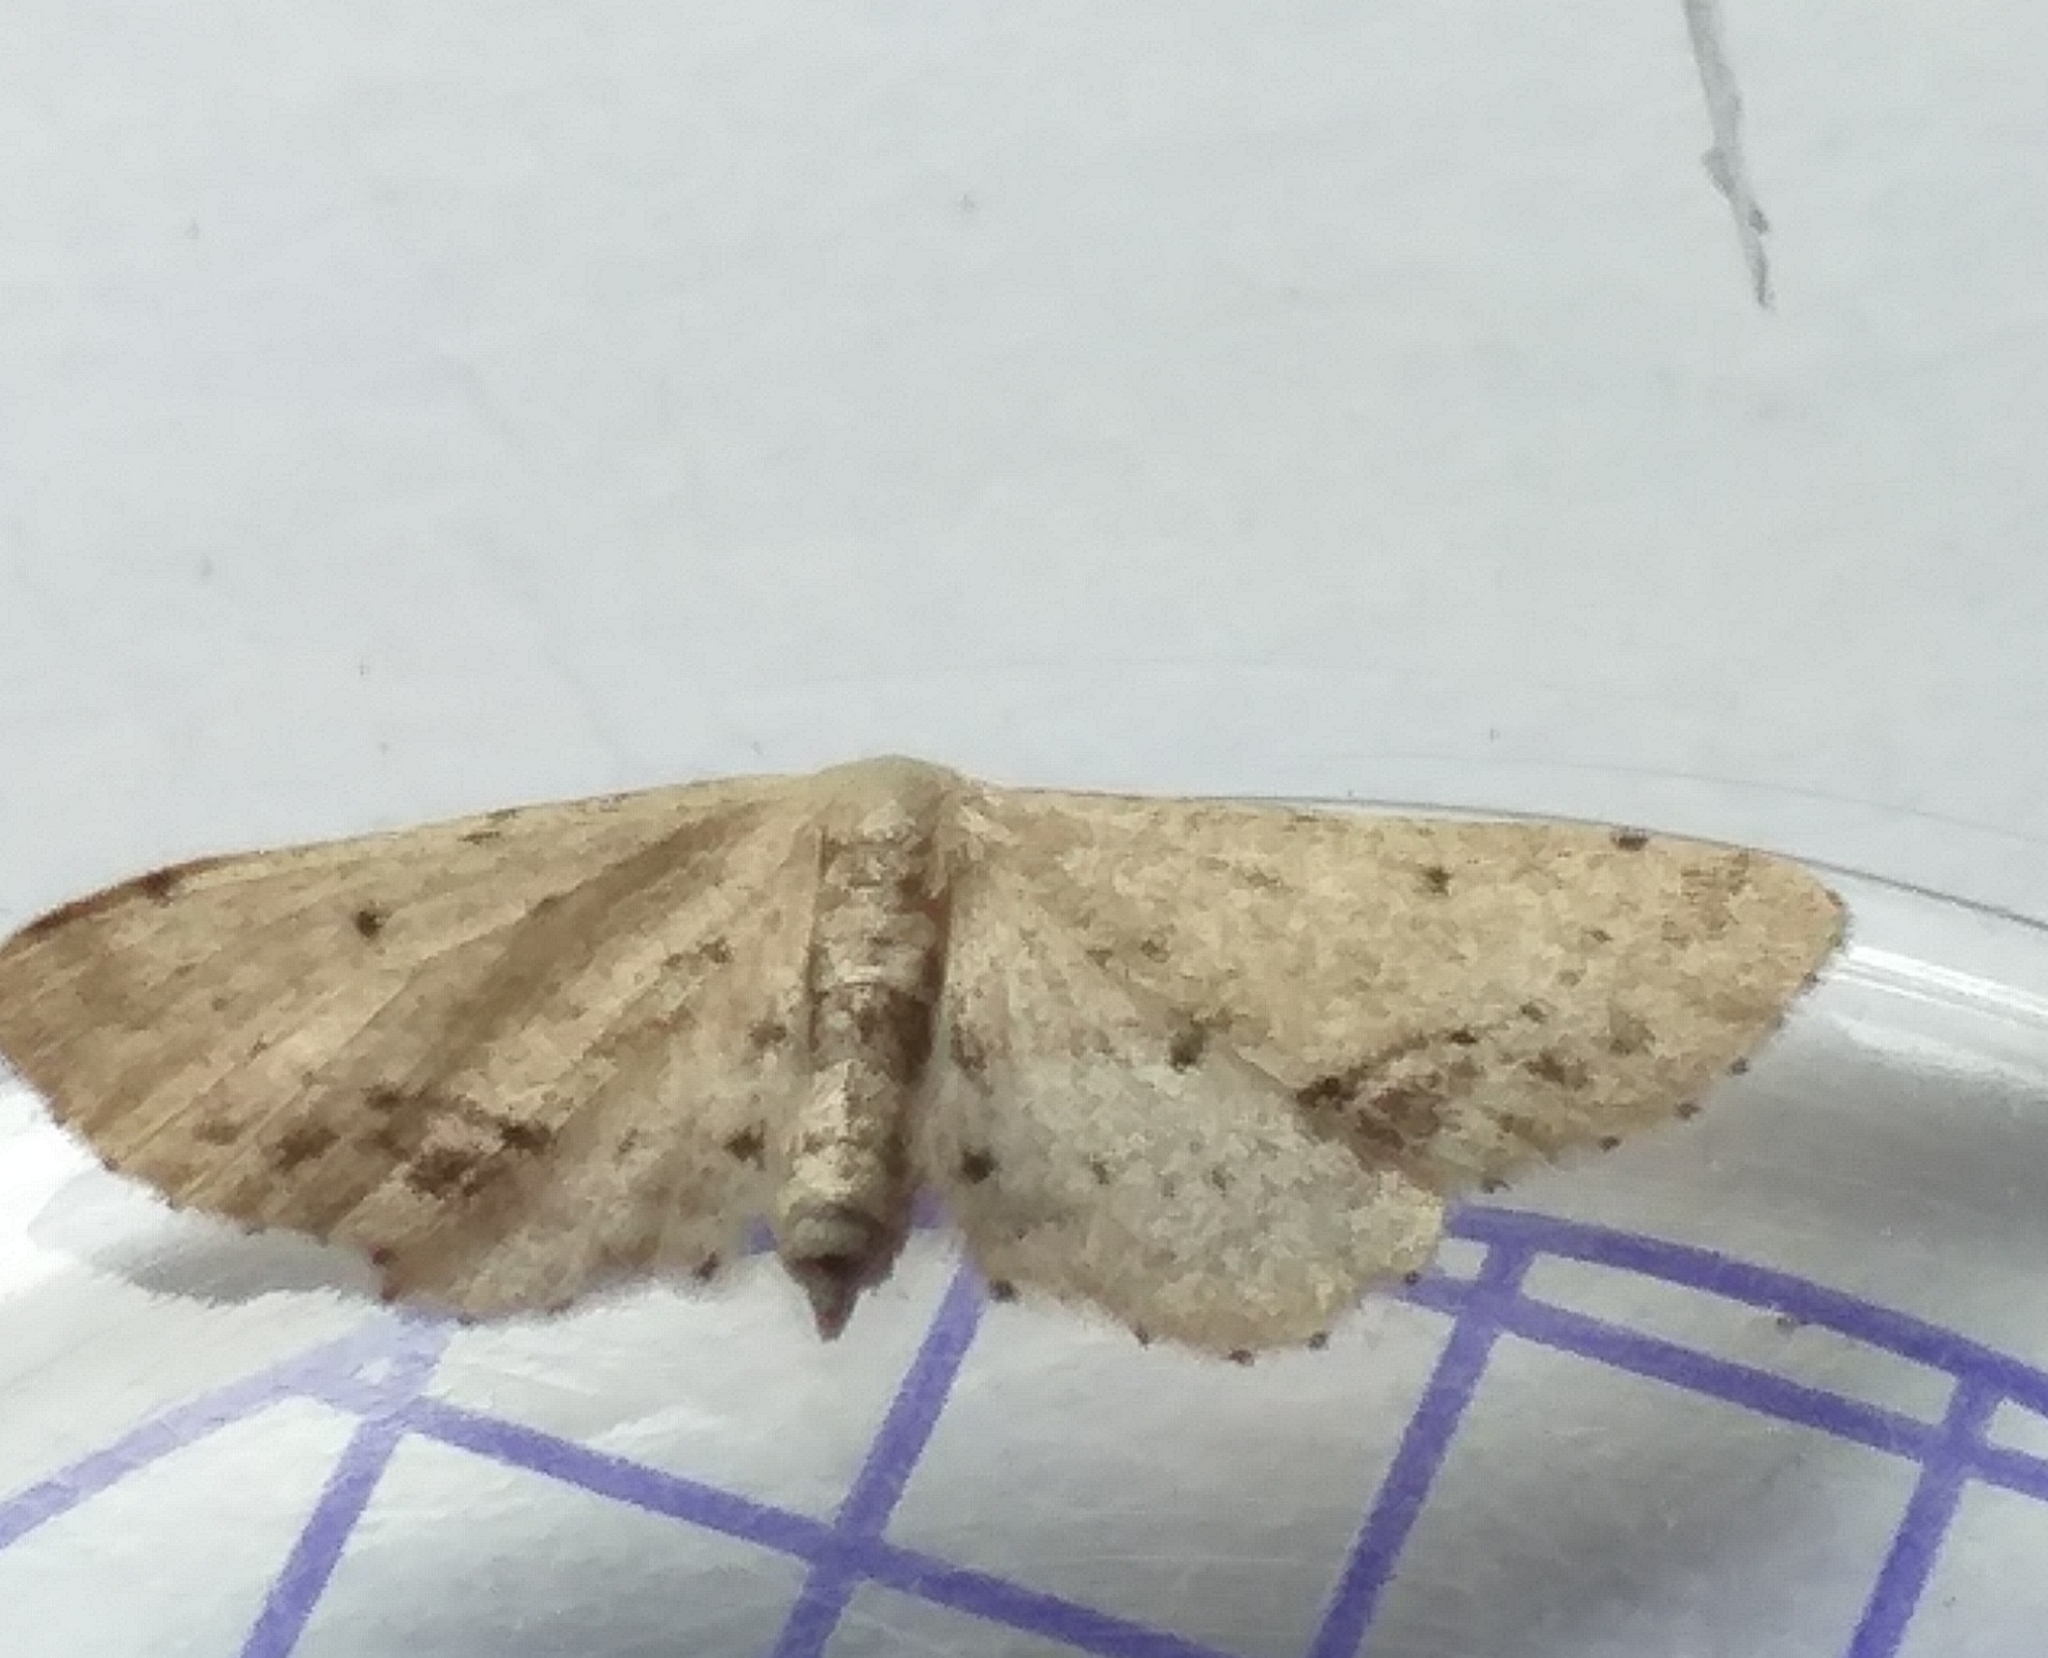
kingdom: Animalia
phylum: Arthropoda
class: Insecta
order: Lepidoptera
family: Geometridae
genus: Idaea
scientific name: Idaea dimidiata
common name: Single-dotted wave
